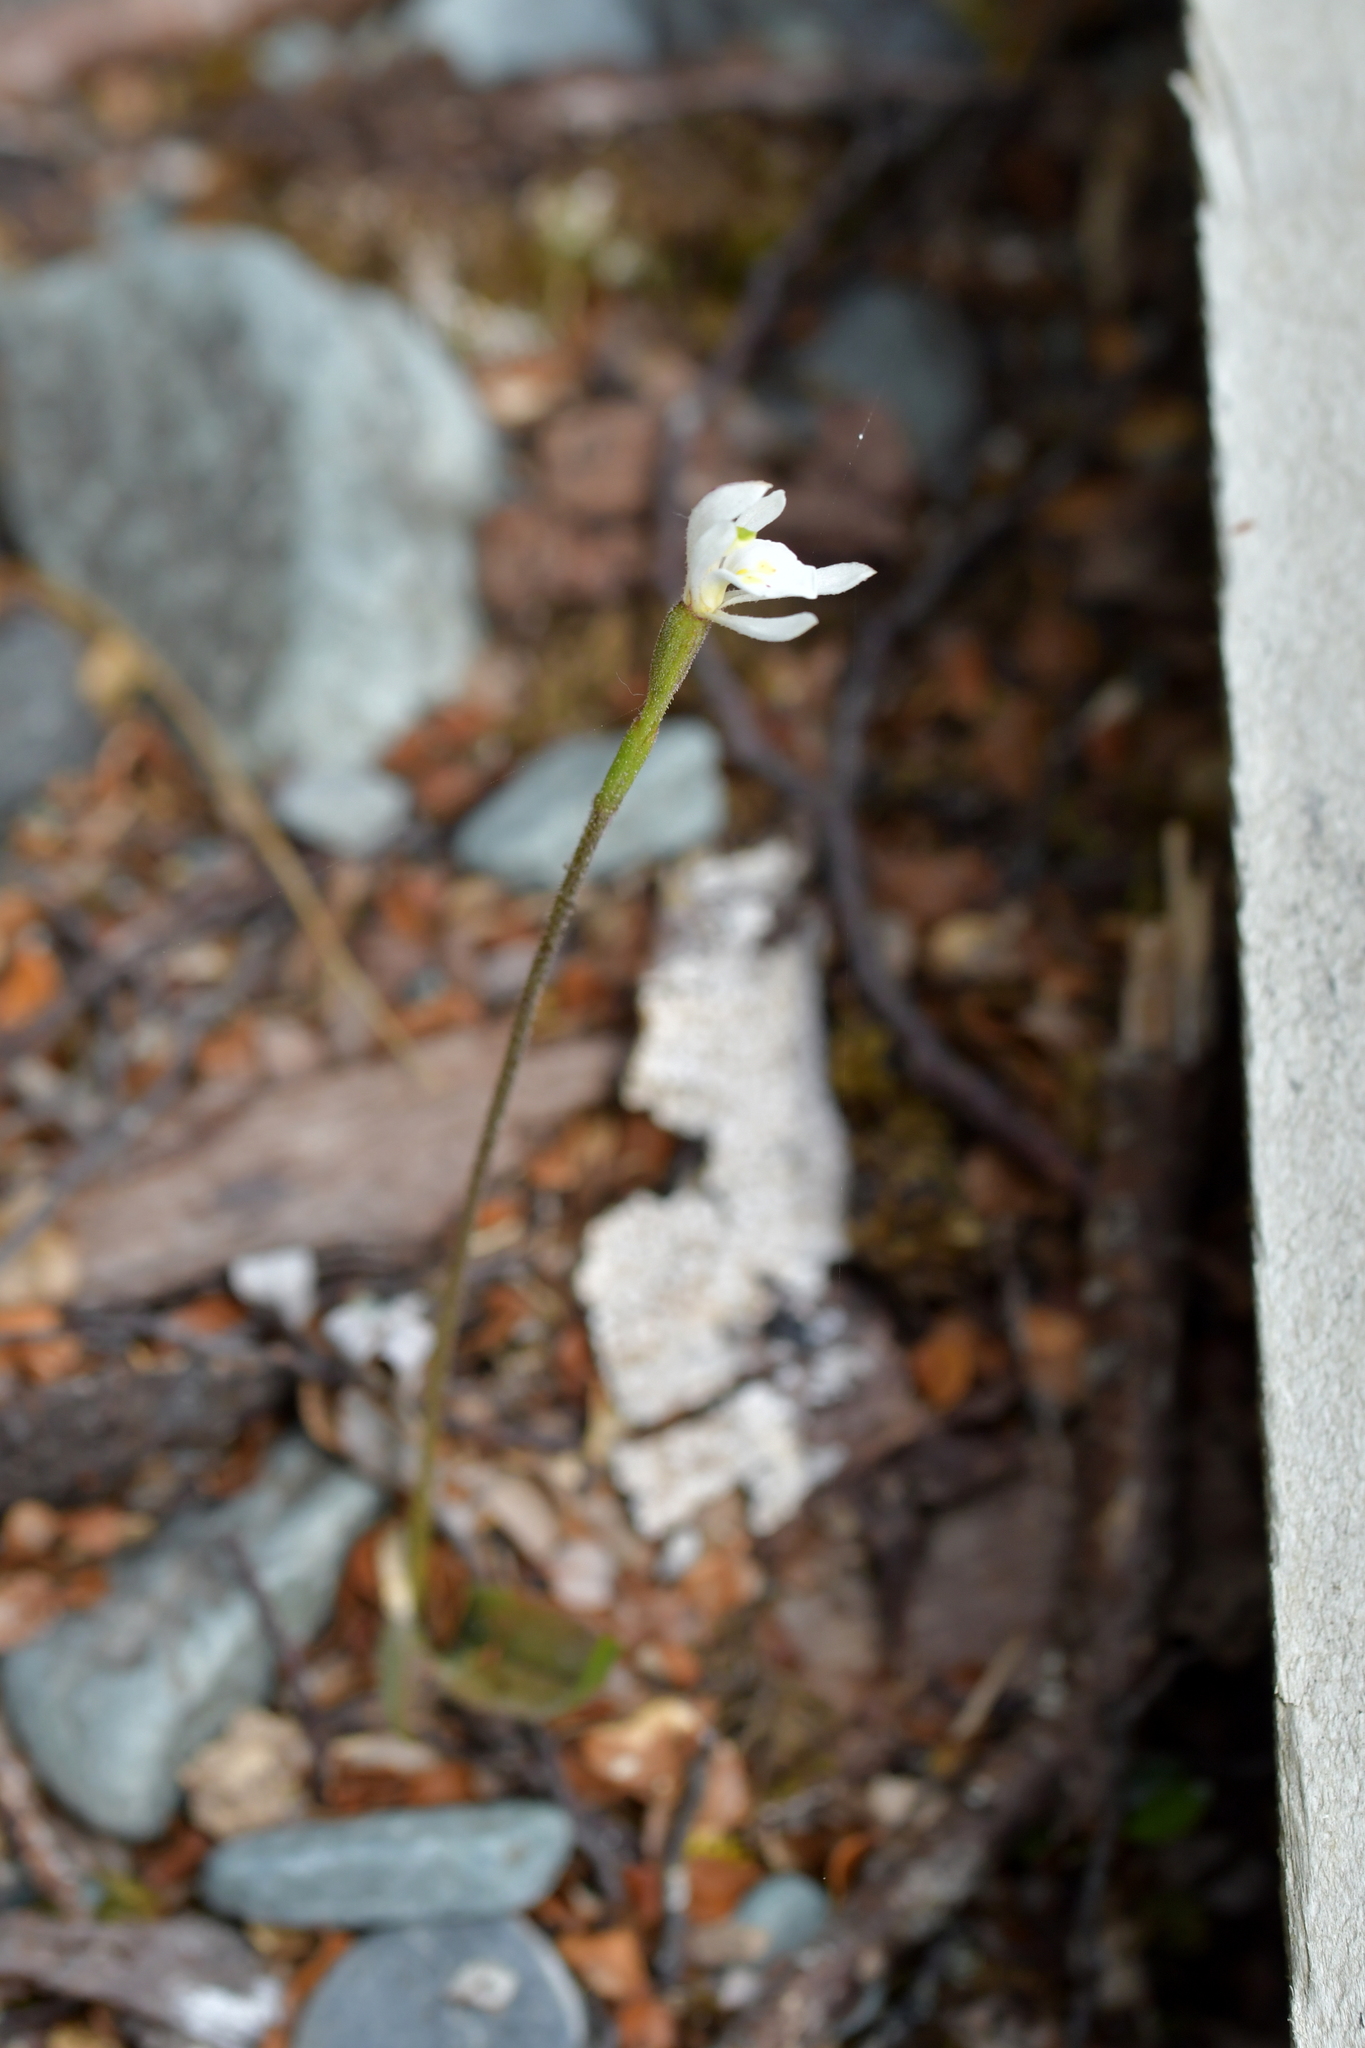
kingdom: Plantae
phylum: Tracheophyta
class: Liliopsida
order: Asparagales
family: Orchidaceae
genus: Aporostylis
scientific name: Aporostylis bifolia
